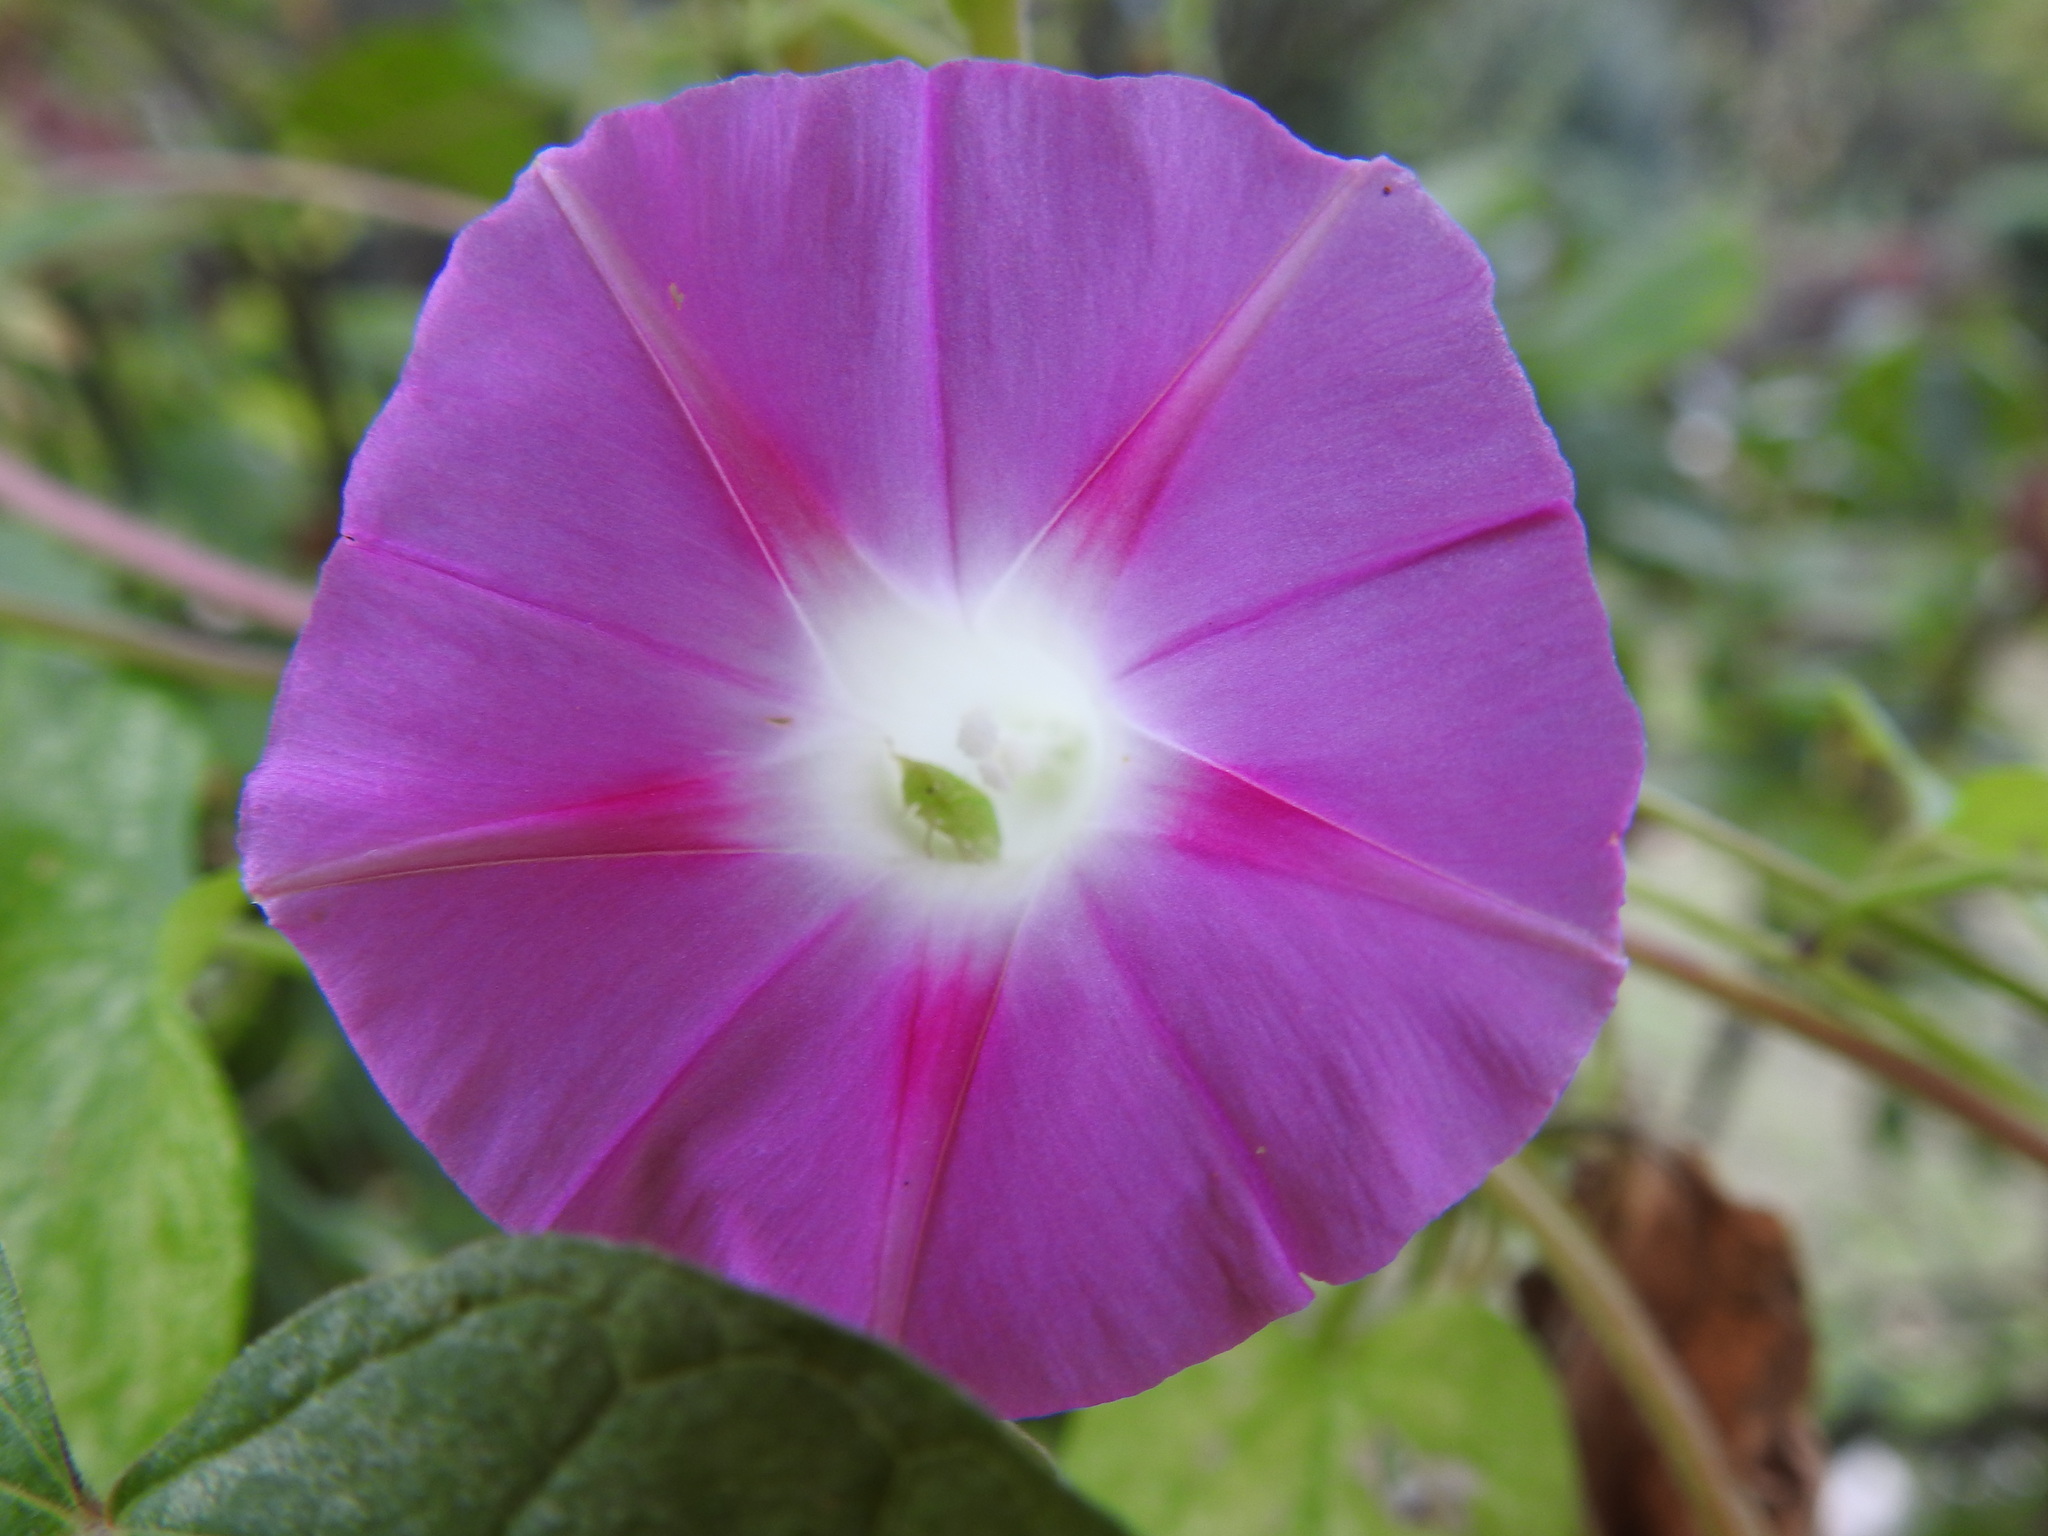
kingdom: Plantae
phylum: Tracheophyta
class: Magnoliopsida
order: Solanales
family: Convolvulaceae
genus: Ipomoea
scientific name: Ipomoea purpurea
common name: Common morning-glory
